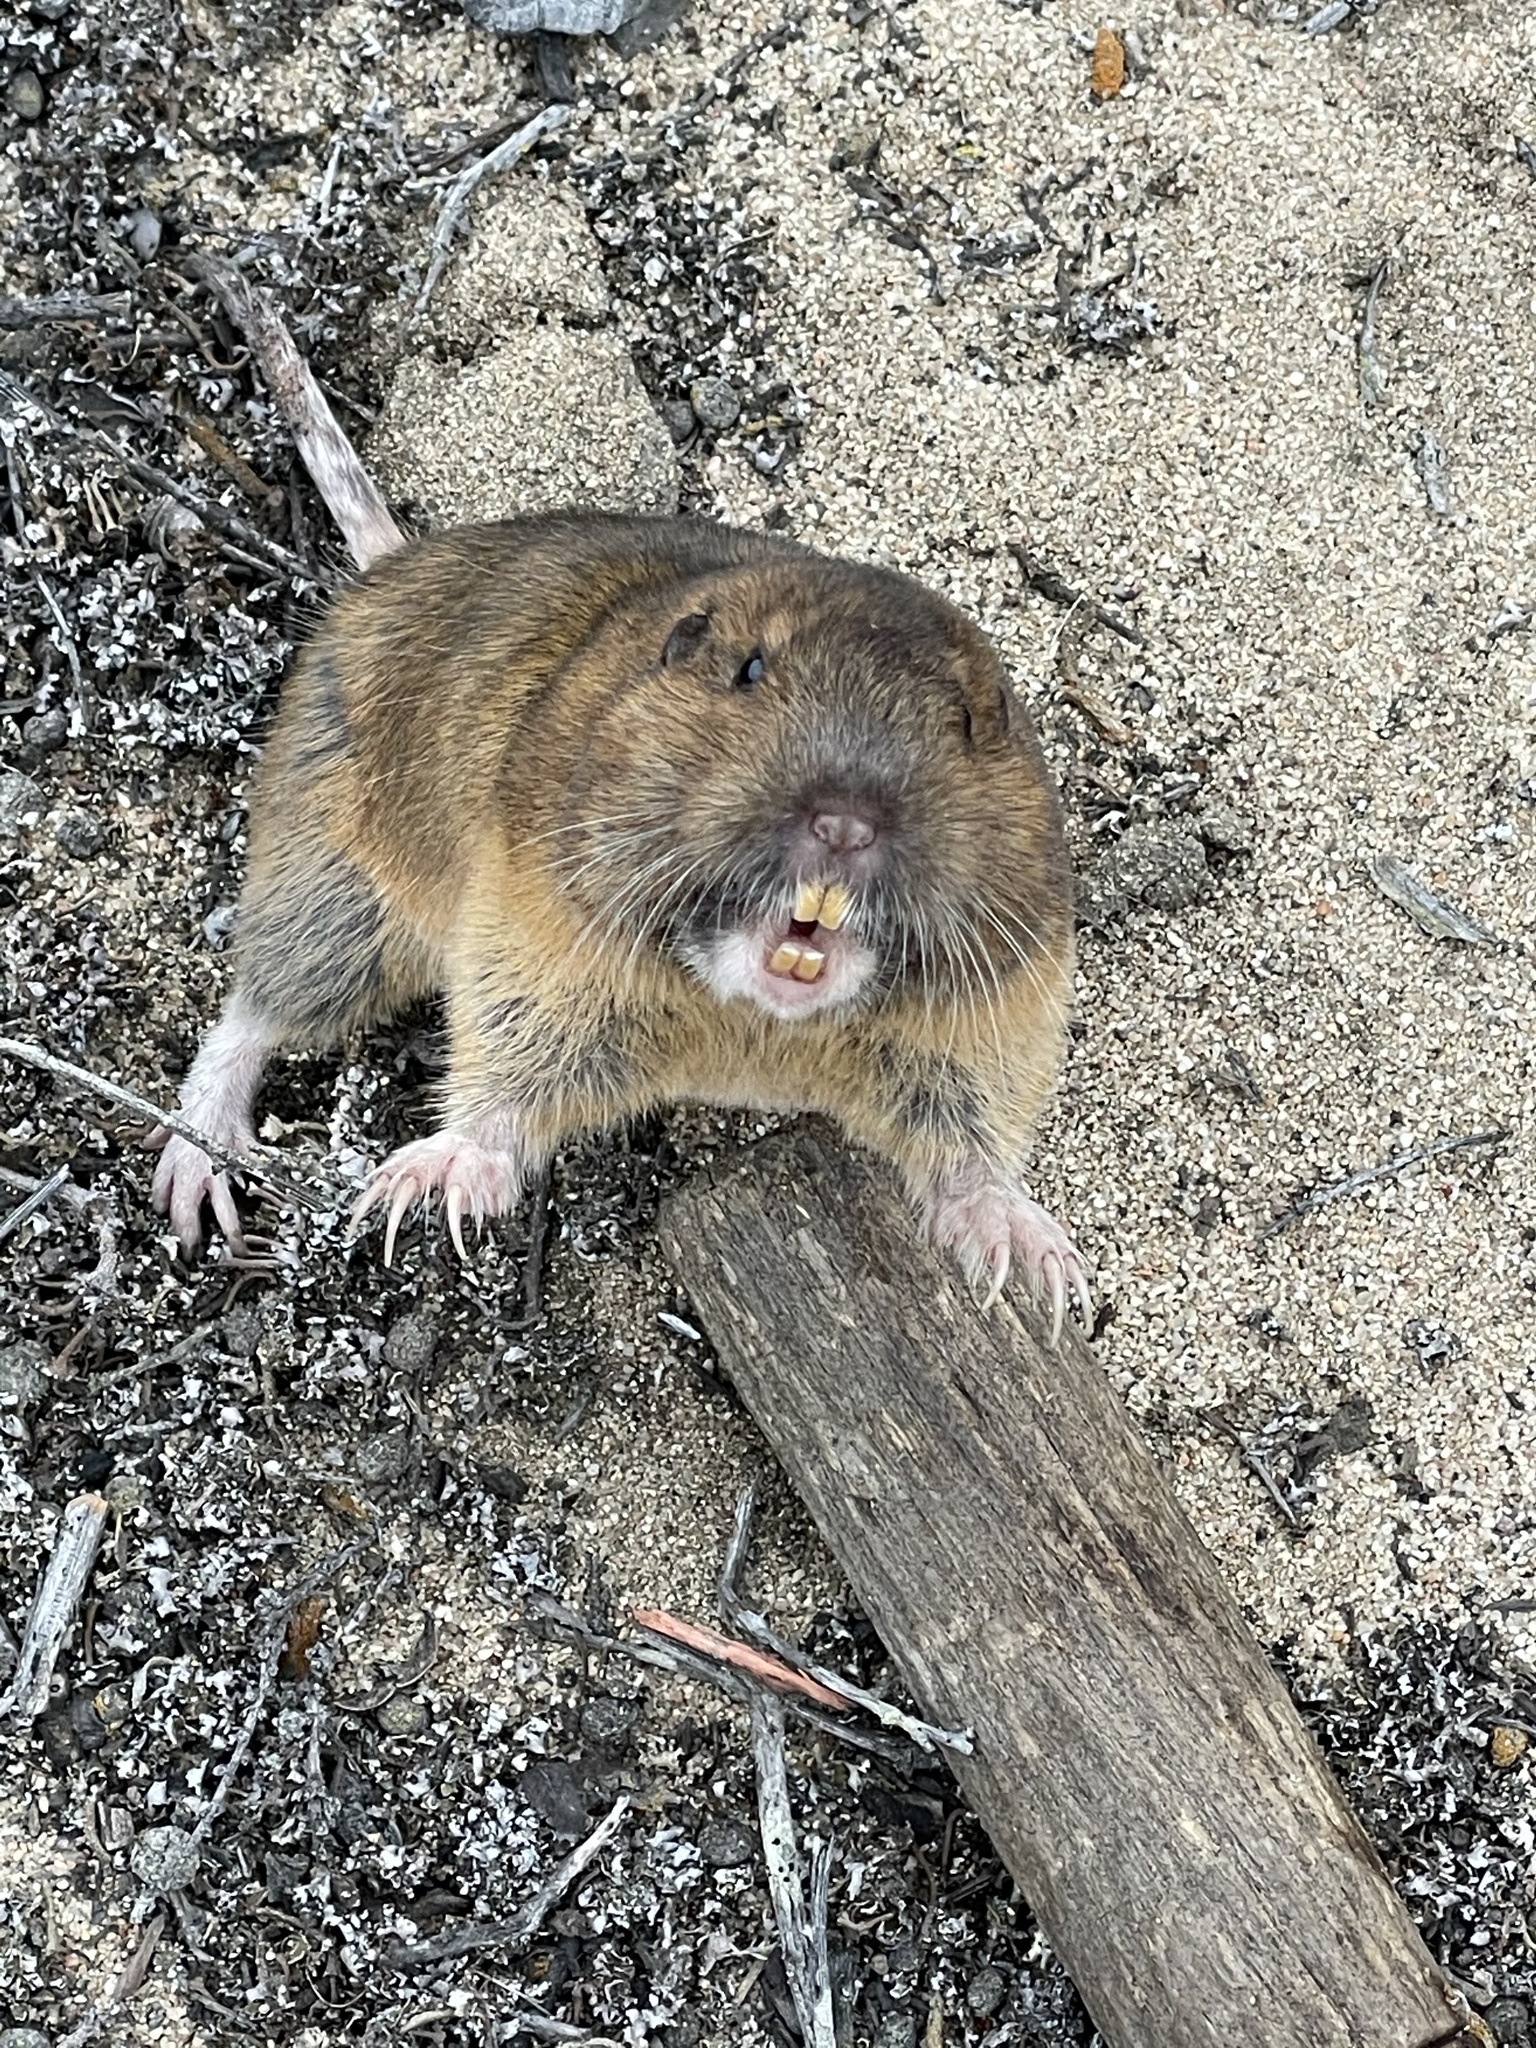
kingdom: Animalia
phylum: Chordata
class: Mammalia
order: Rodentia
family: Geomyidae
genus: Thomomys
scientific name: Thomomys bottae
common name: Botta's pocket gopher
